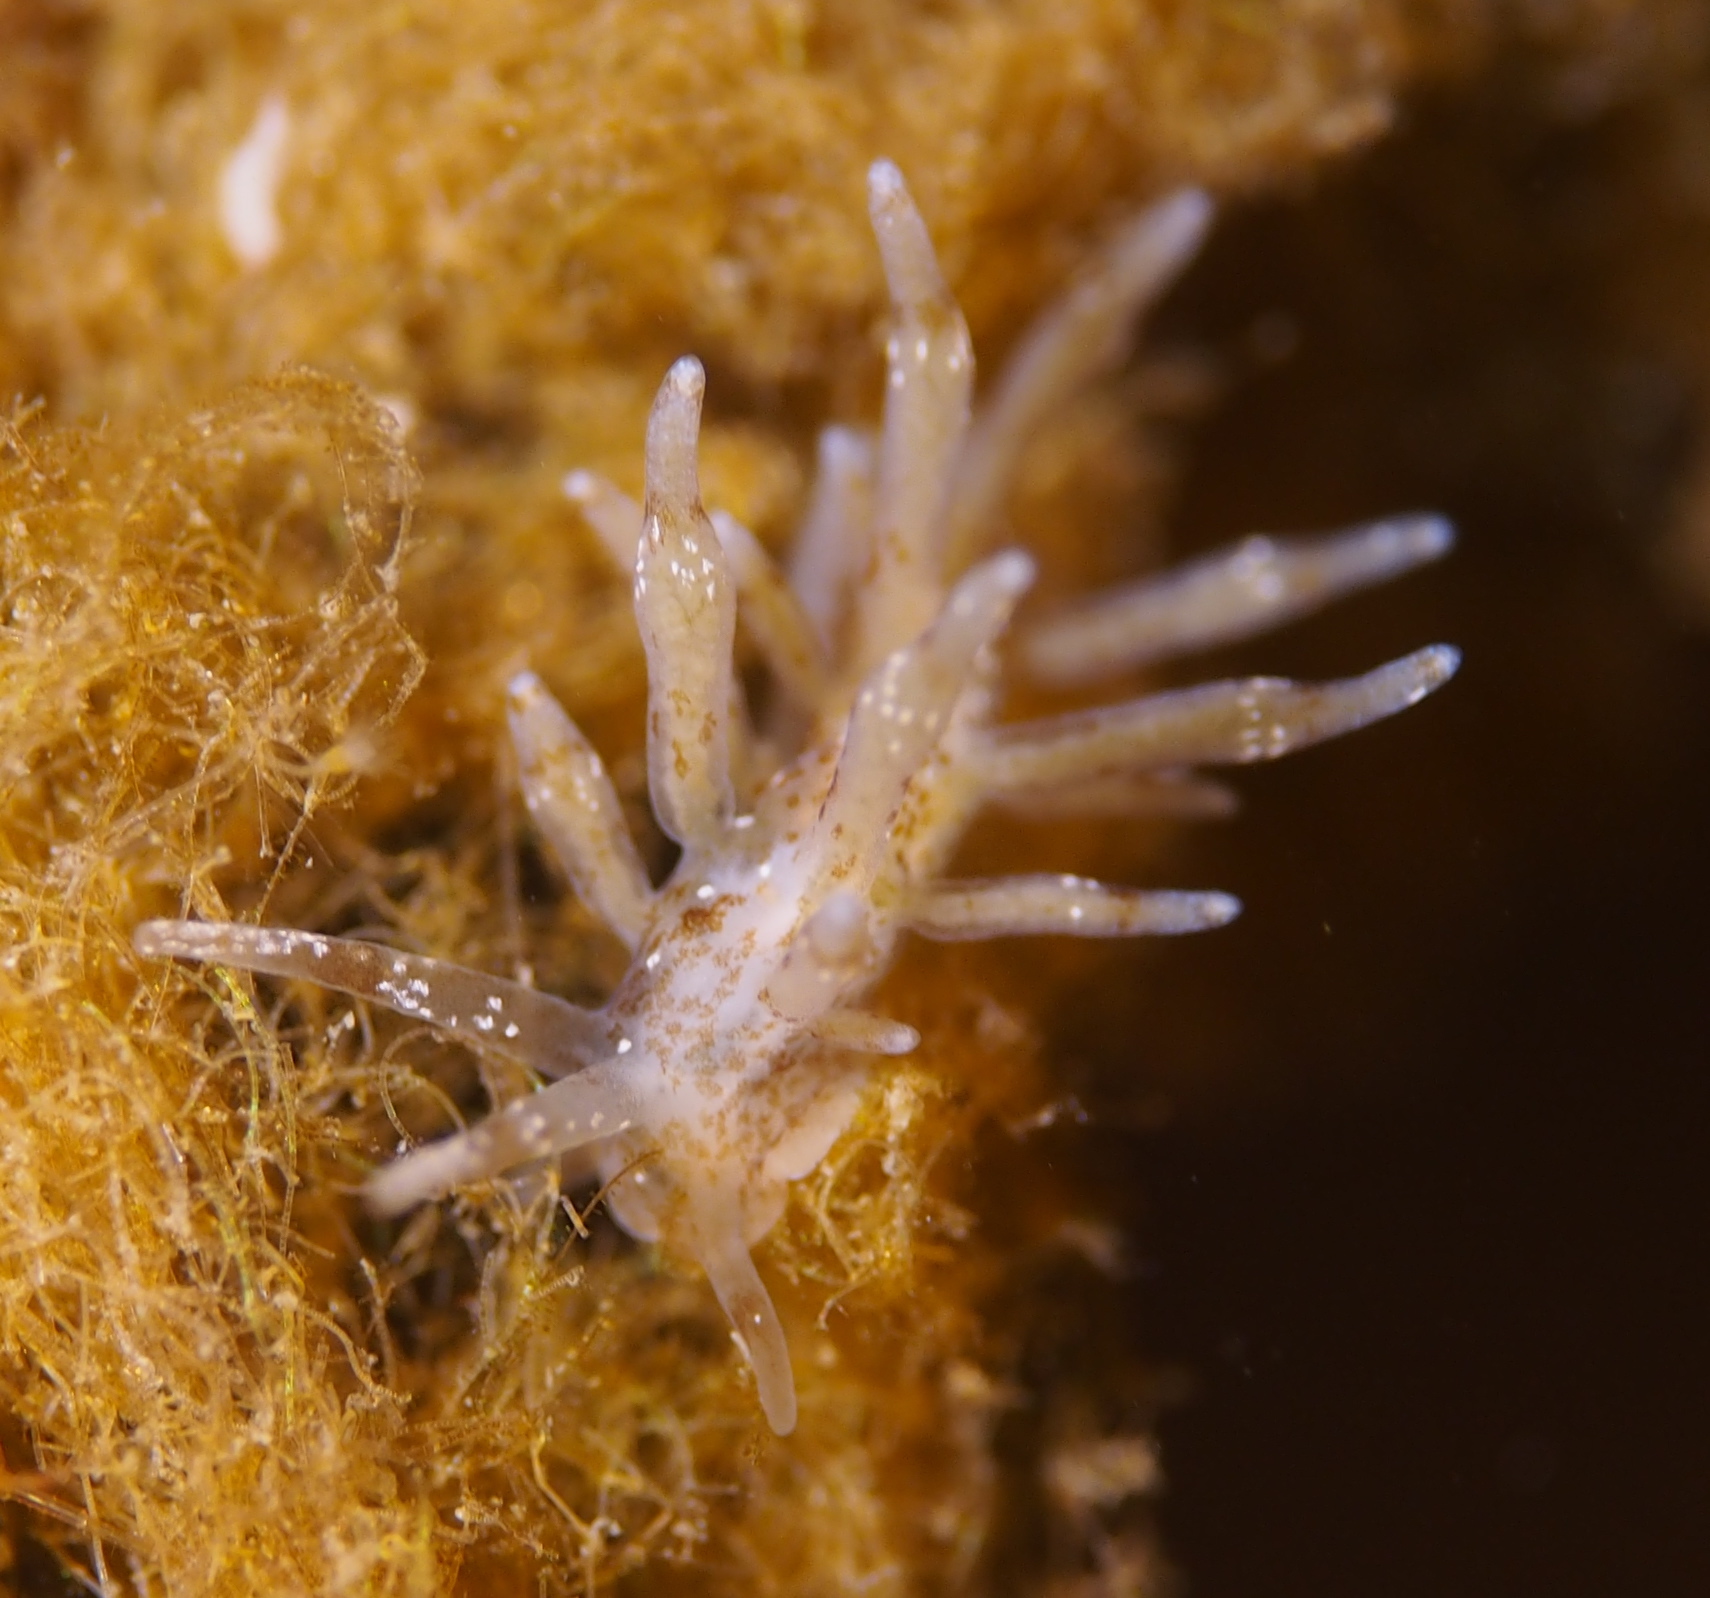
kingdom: Animalia
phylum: Mollusca
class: Gastropoda
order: Nudibranchia
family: Eubranchidae
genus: Eubranchus
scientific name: Eubranchus exiguus
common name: Balloon aeolis
